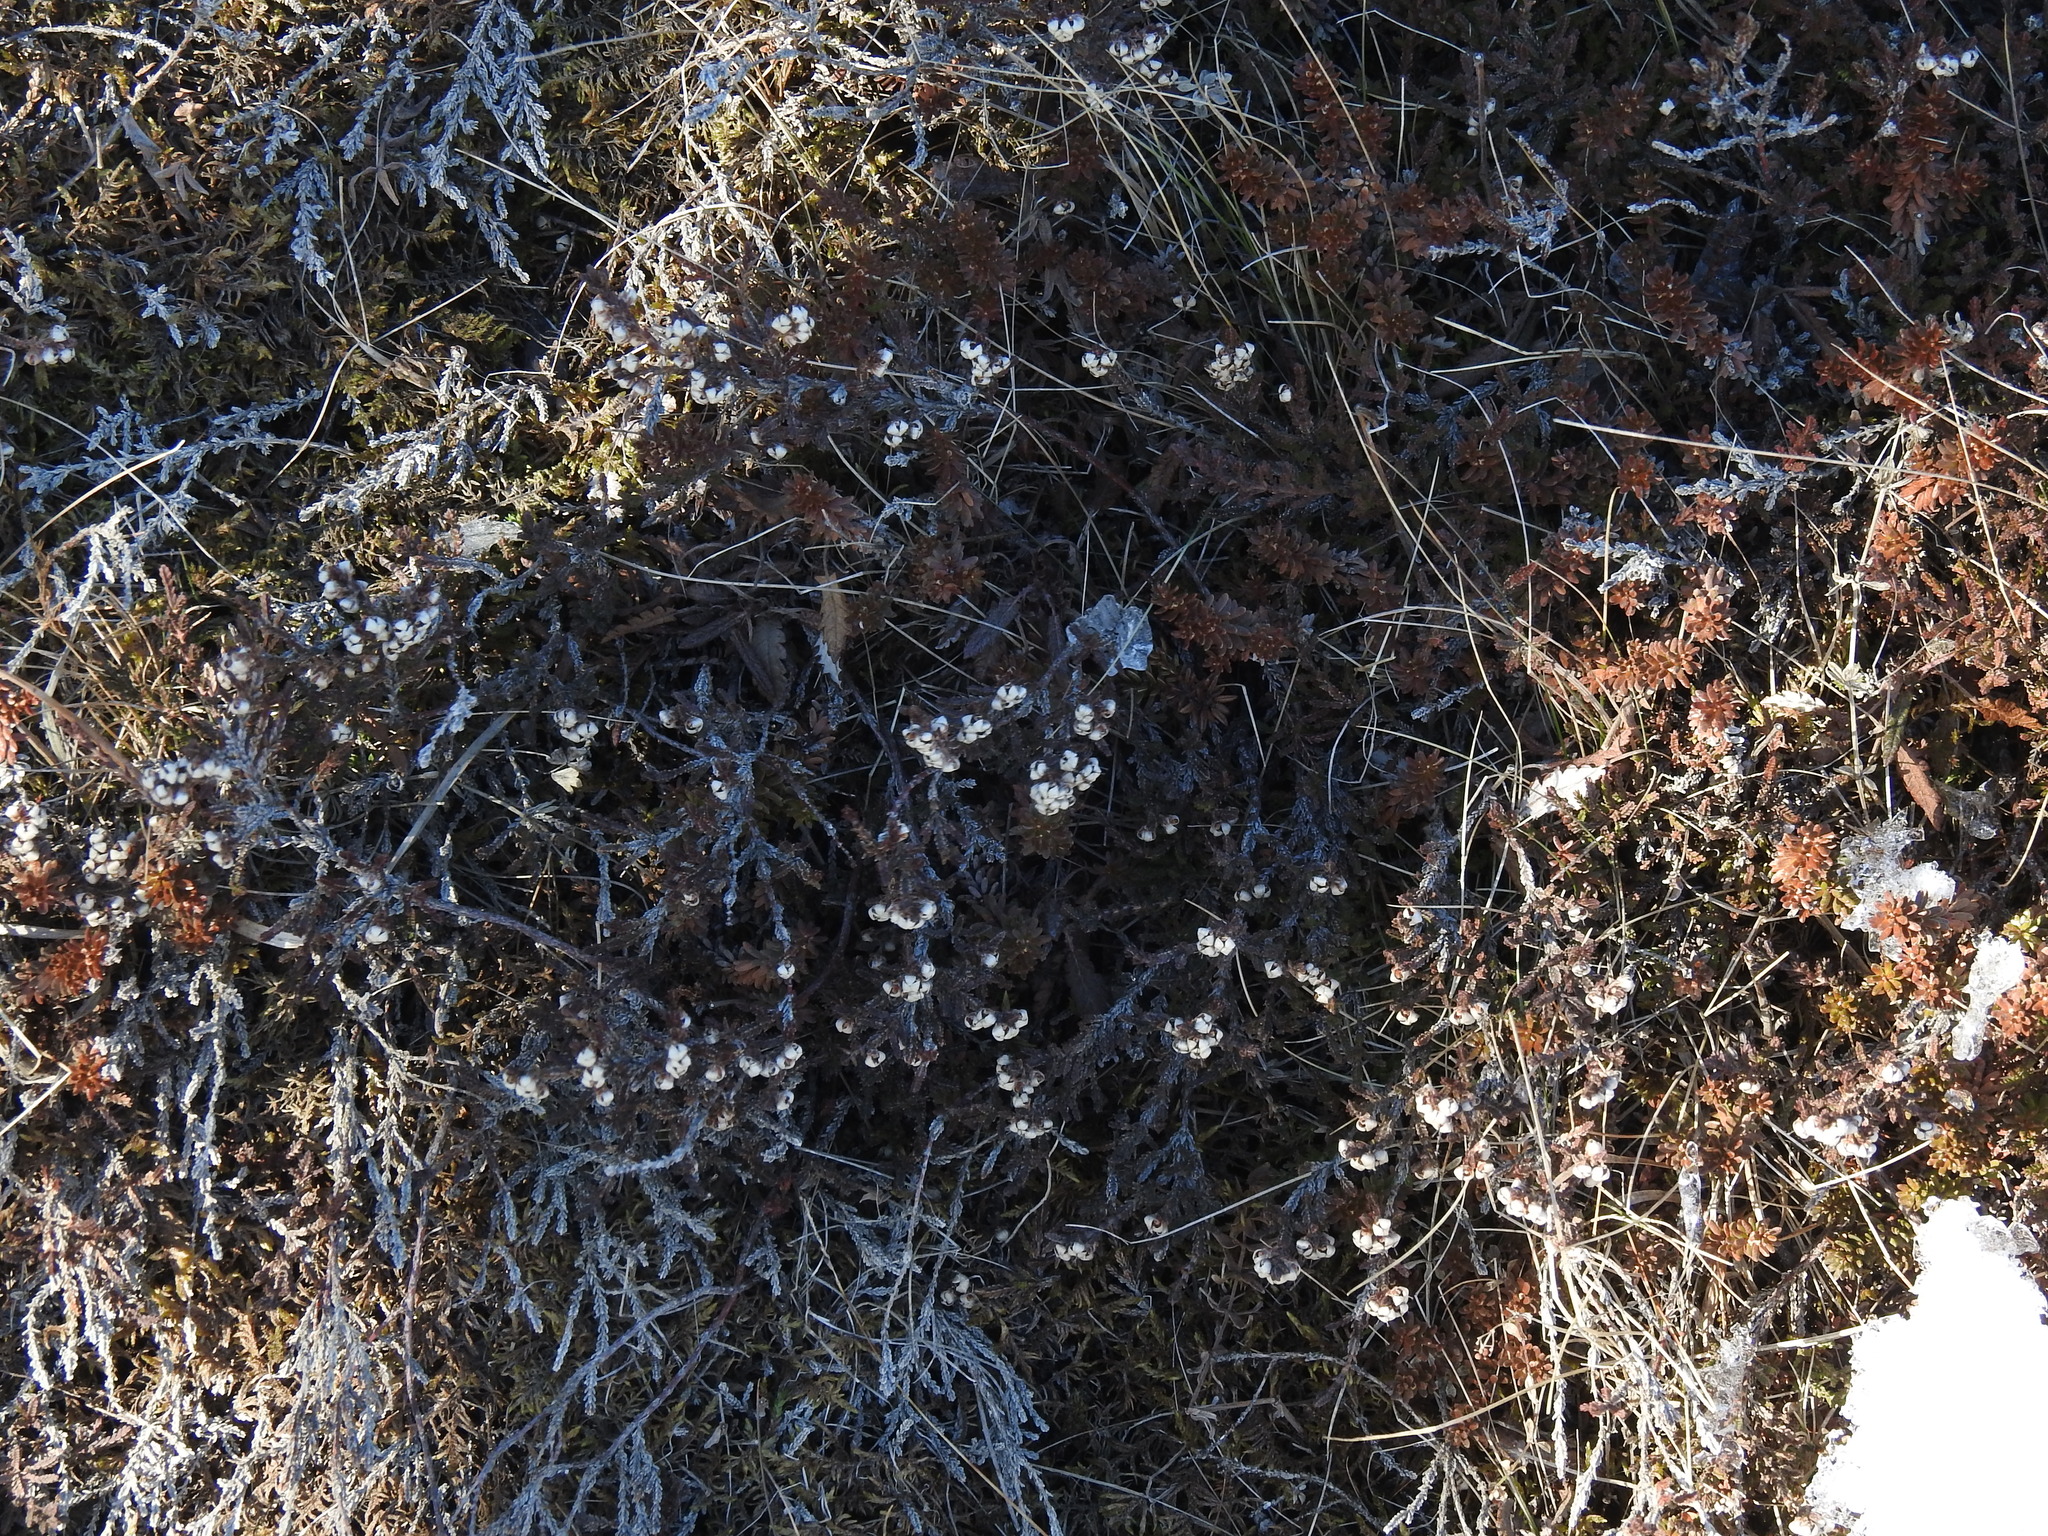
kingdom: Plantae
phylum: Tracheophyta
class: Magnoliopsida
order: Ericales
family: Ericaceae
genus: Calluna
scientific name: Calluna vulgaris
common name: Heather
